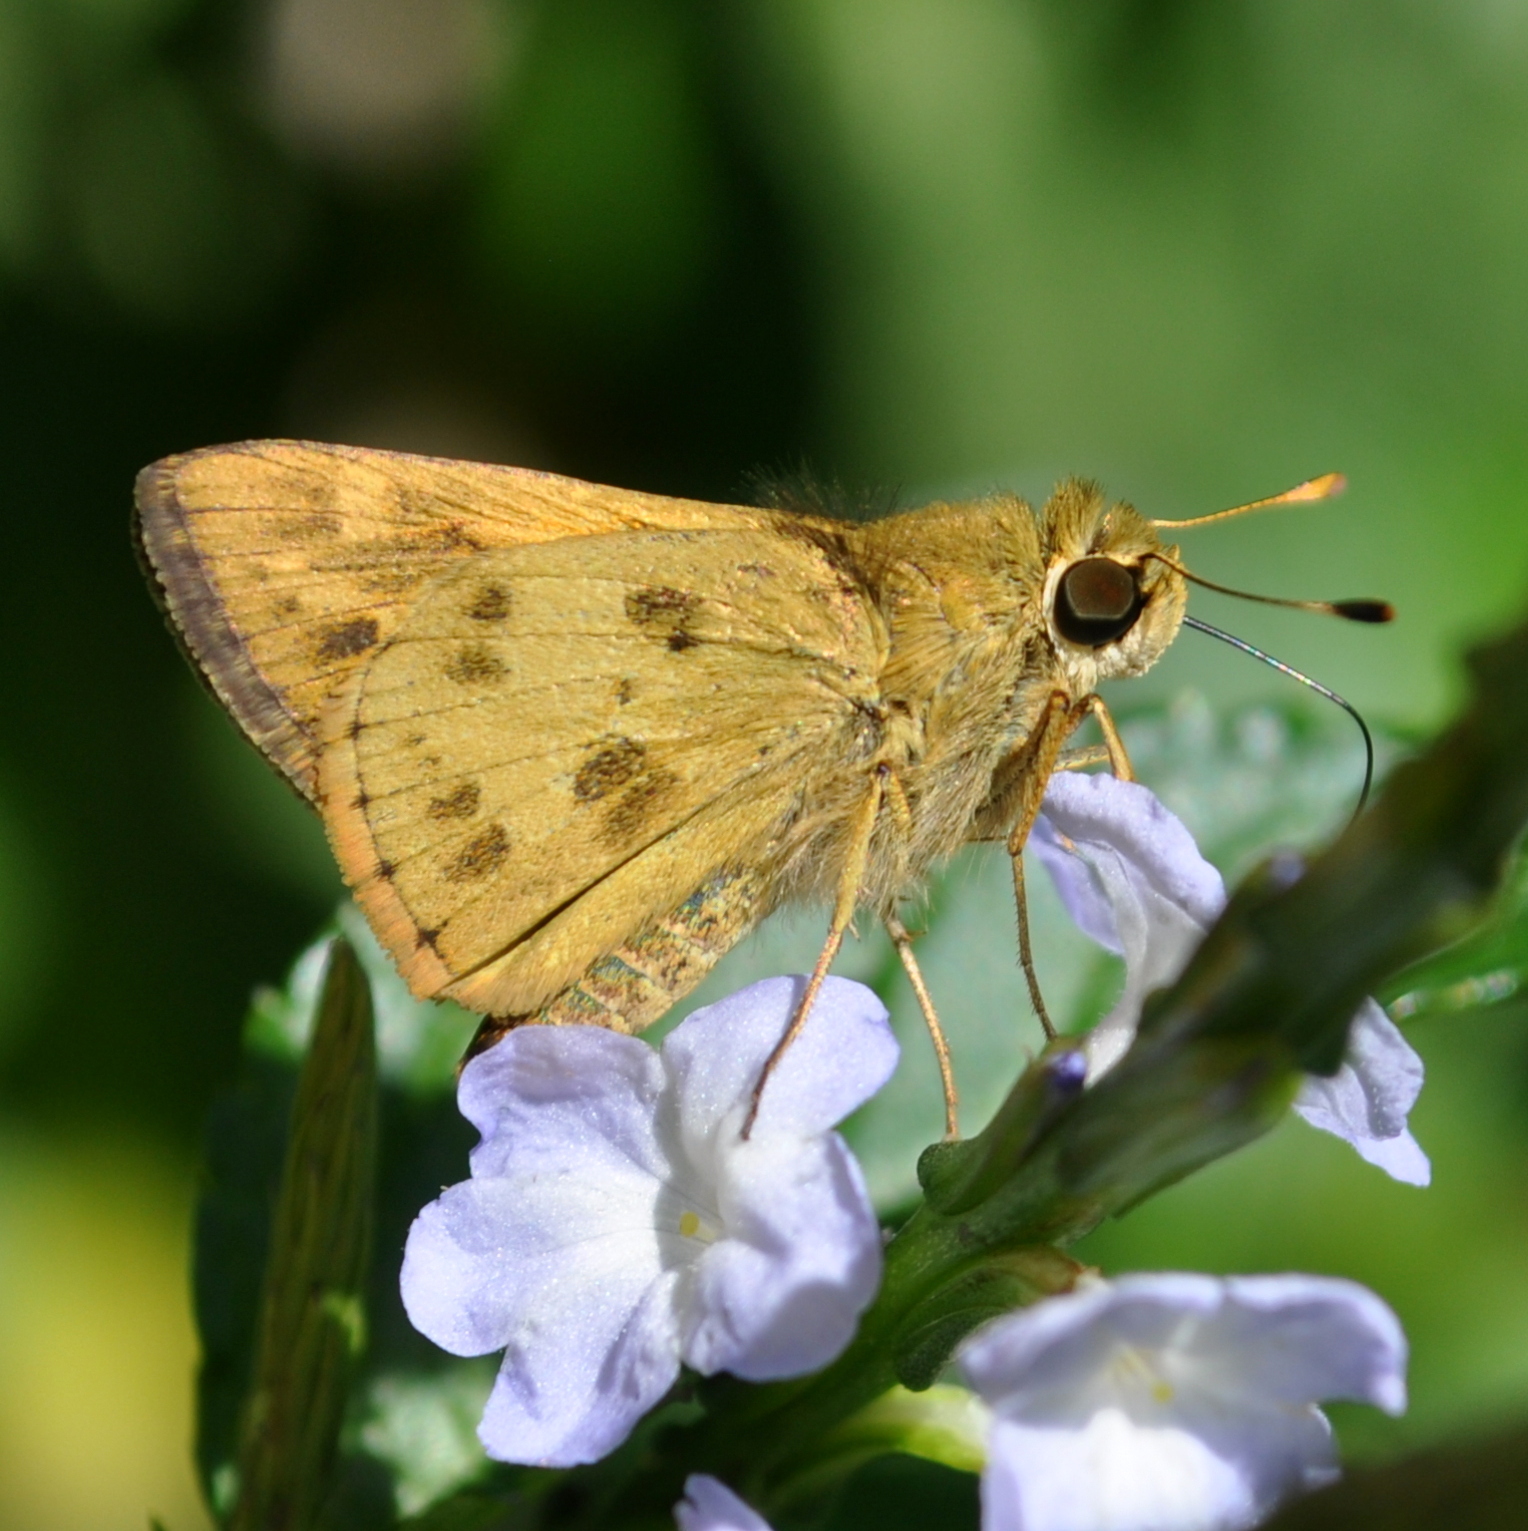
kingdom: Animalia
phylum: Arthropoda
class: Insecta
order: Lepidoptera
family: Hesperiidae
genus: Polites
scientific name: Polites vibex
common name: Whirlabout
